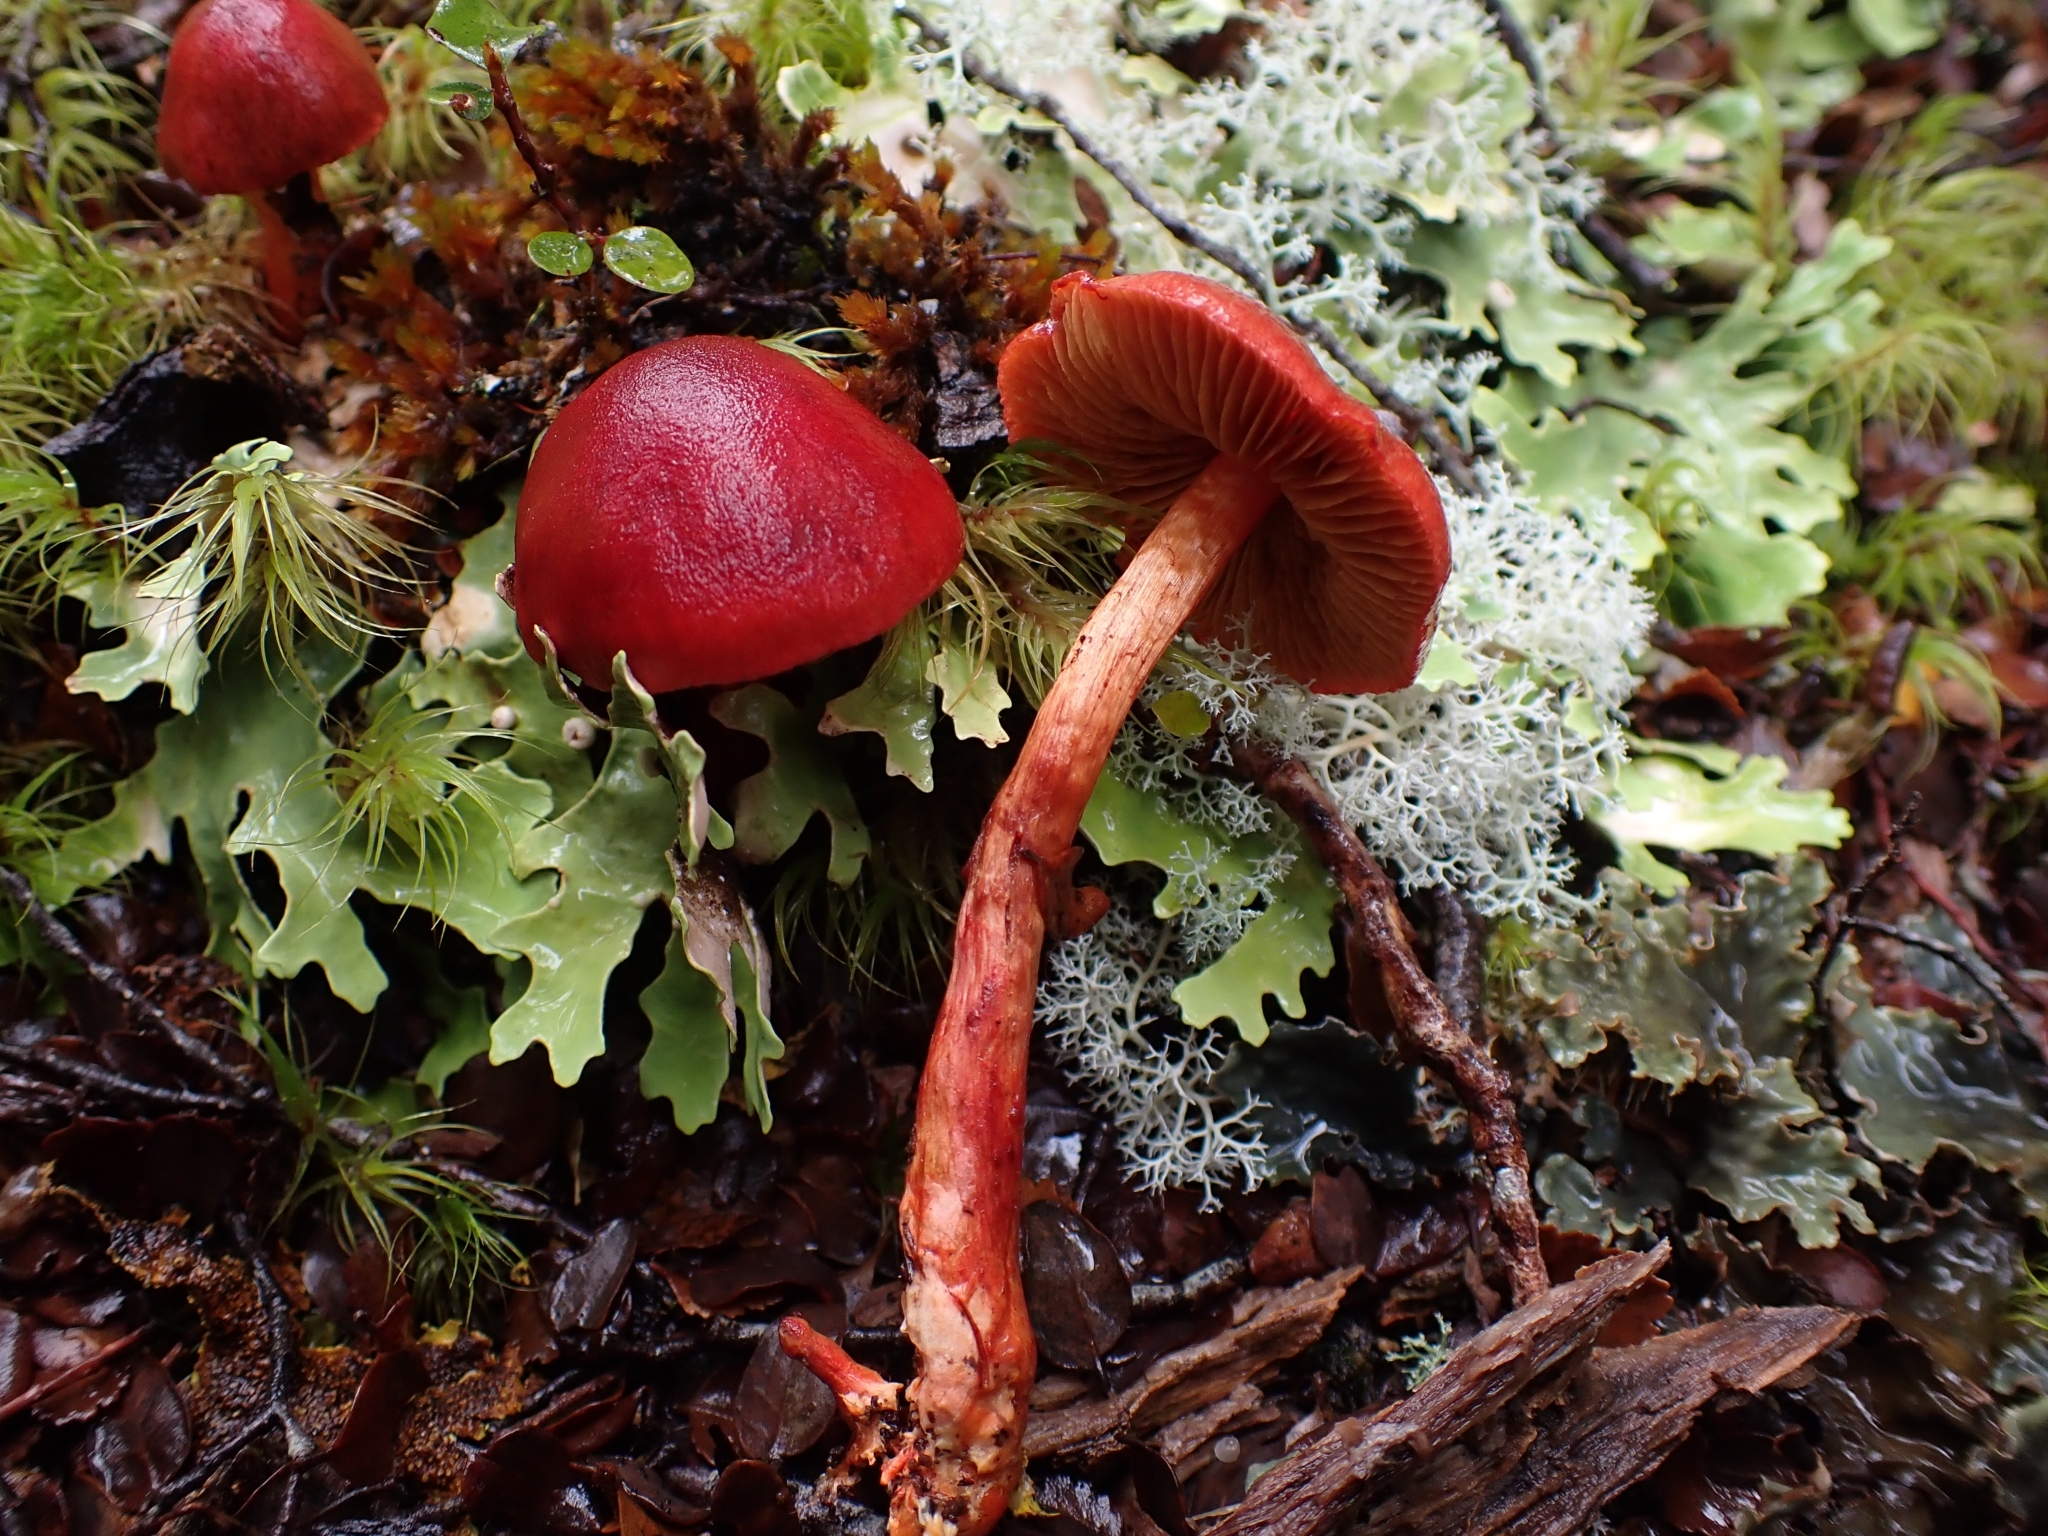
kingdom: Fungi
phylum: Basidiomycota
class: Agaricomycetes
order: Agaricales
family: Cortinariaceae
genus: Cortinarius
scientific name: Cortinarius cardinalis
